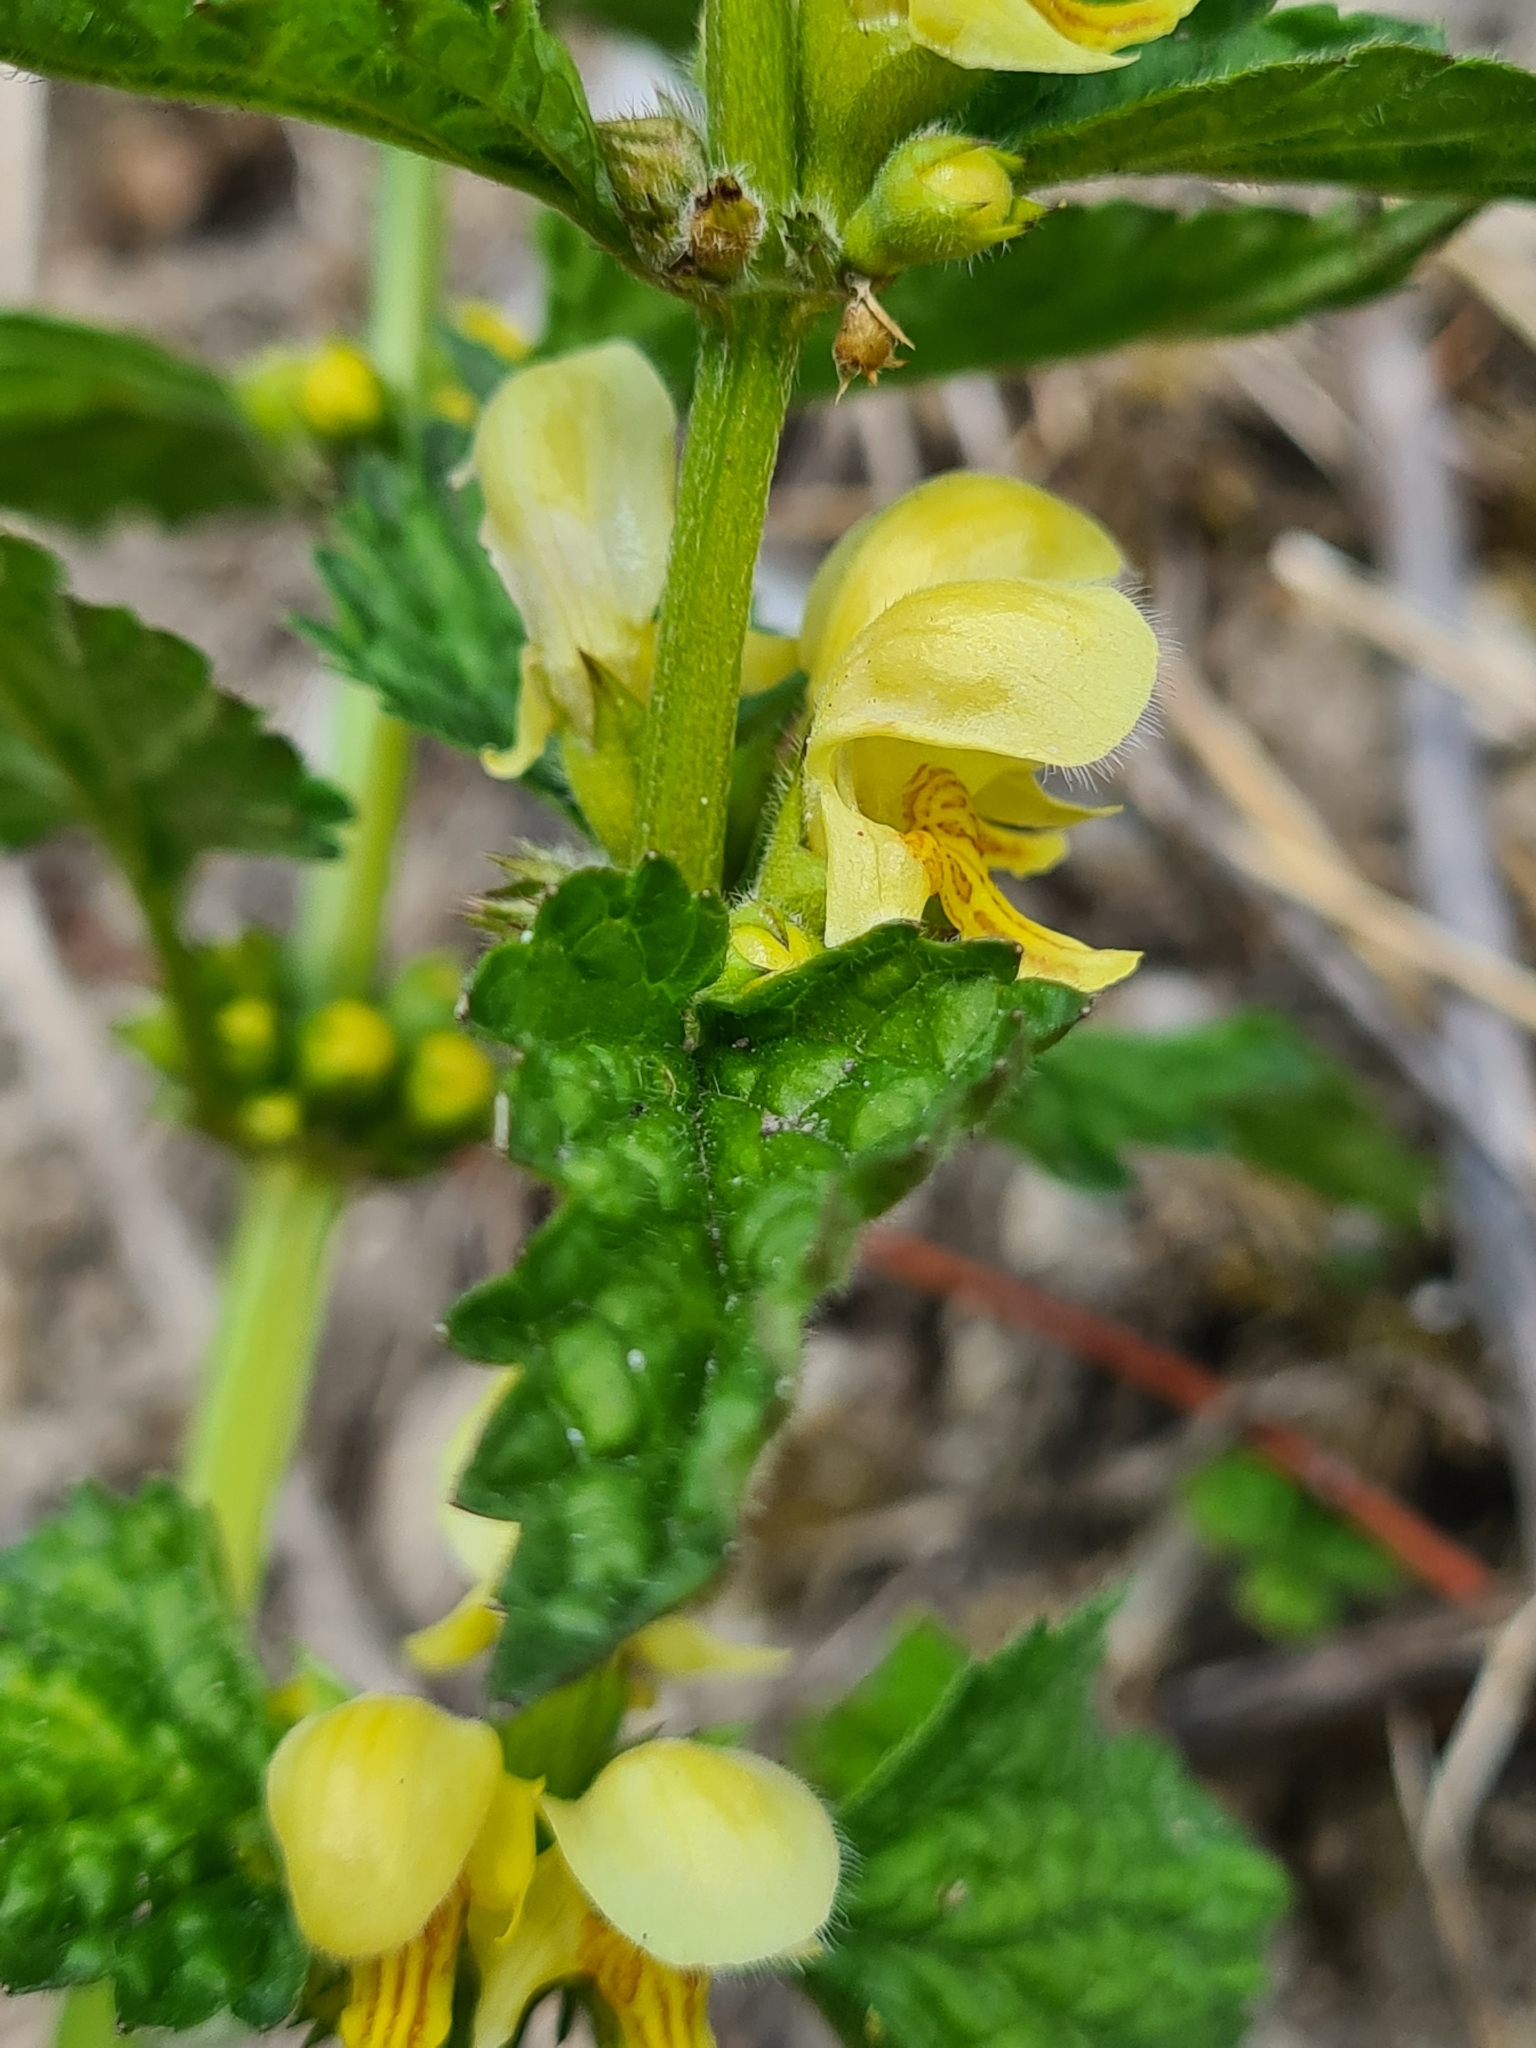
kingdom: Plantae
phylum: Tracheophyta
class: Magnoliopsida
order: Lamiales
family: Lamiaceae
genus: Lamium
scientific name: Lamium galeobdolon
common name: Yellow archangel
